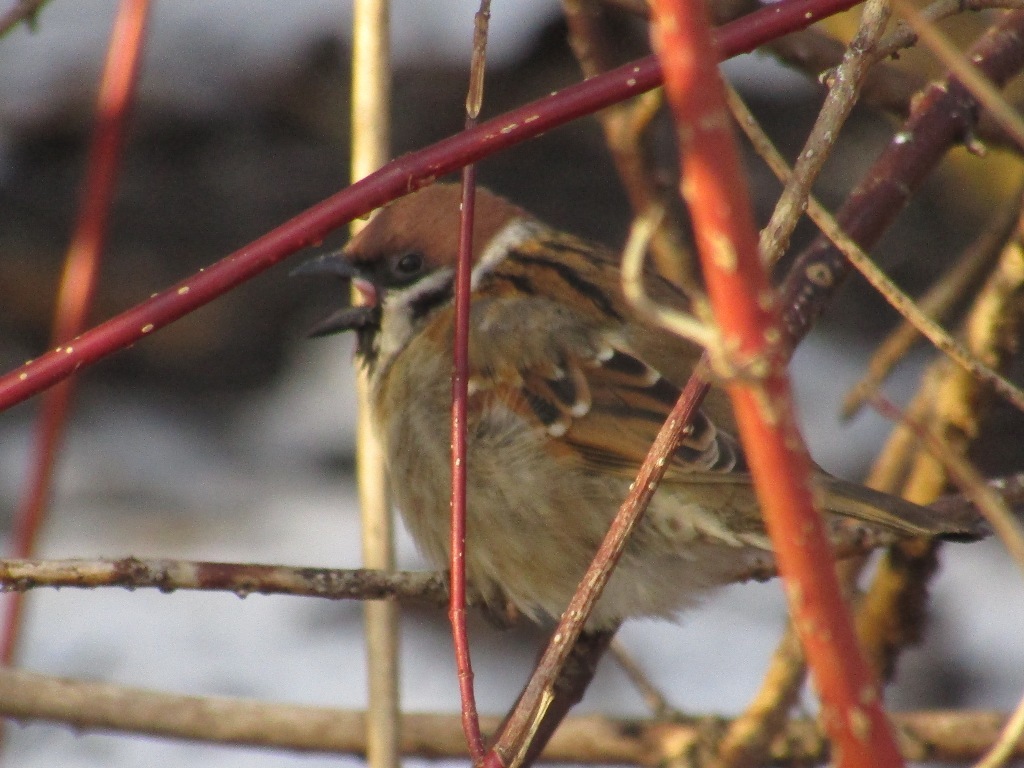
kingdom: Animalia
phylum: Chordata
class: Aves
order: Passeriformes
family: Passeridae
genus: Passer
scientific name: Passer montanus
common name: Eurasian tree sparrow
